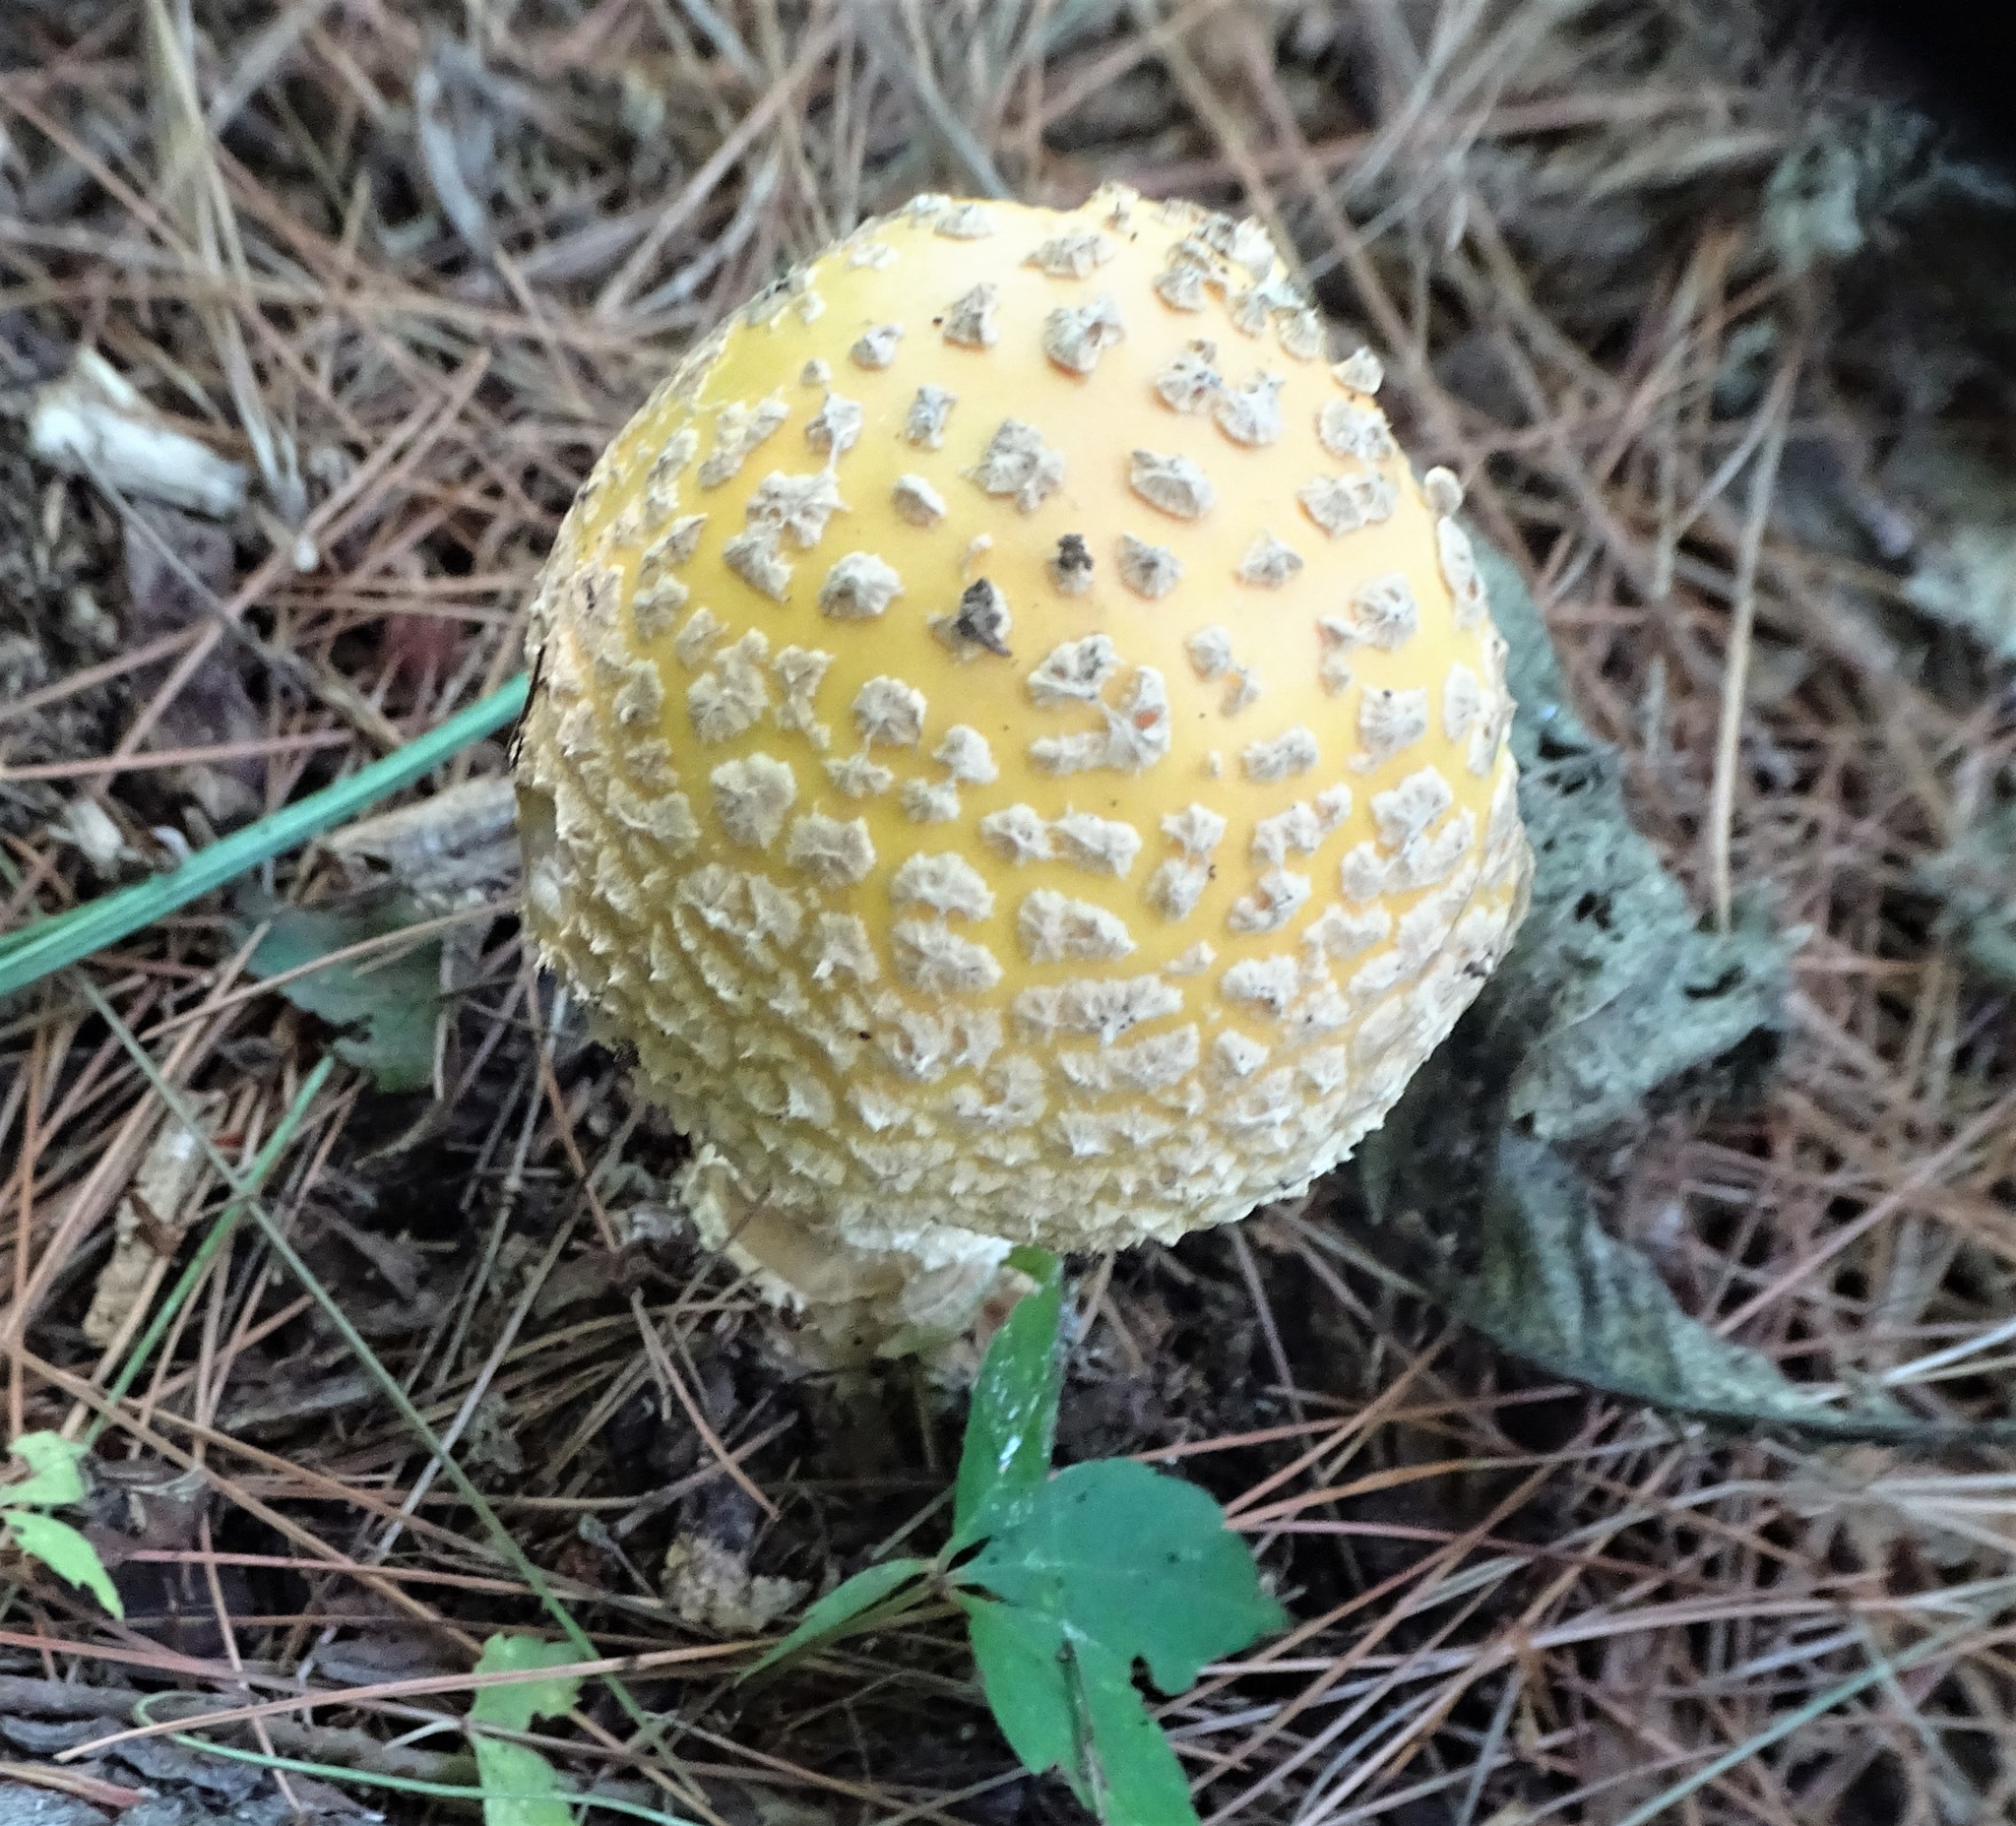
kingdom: Fungi
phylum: Basidiomycota
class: Agaricomycetes
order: Agaricales
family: Amanitaceae
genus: Amanita
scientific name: Amanita muscaria
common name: Fly agaric
